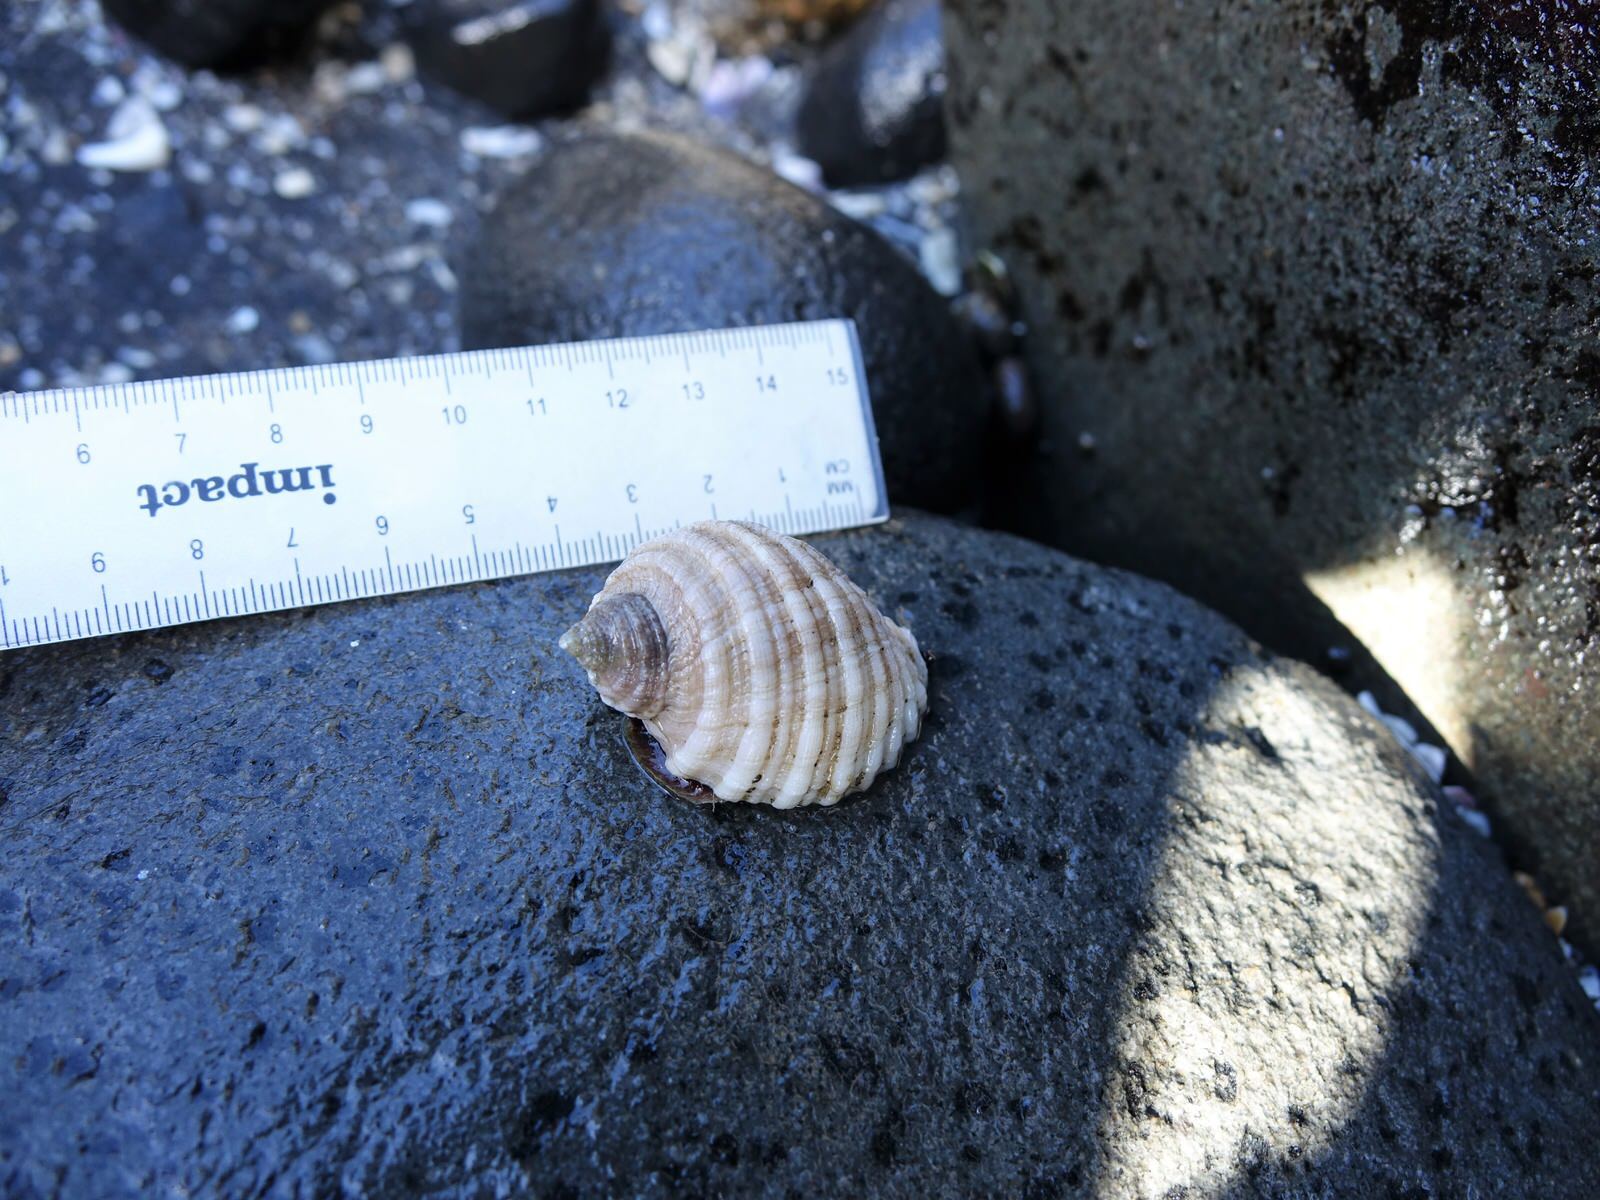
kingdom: Animalia
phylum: Mollusca
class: Gastropoda
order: Neogastropoda
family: Muricidae
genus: Dicathais
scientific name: Dicathais orbita
